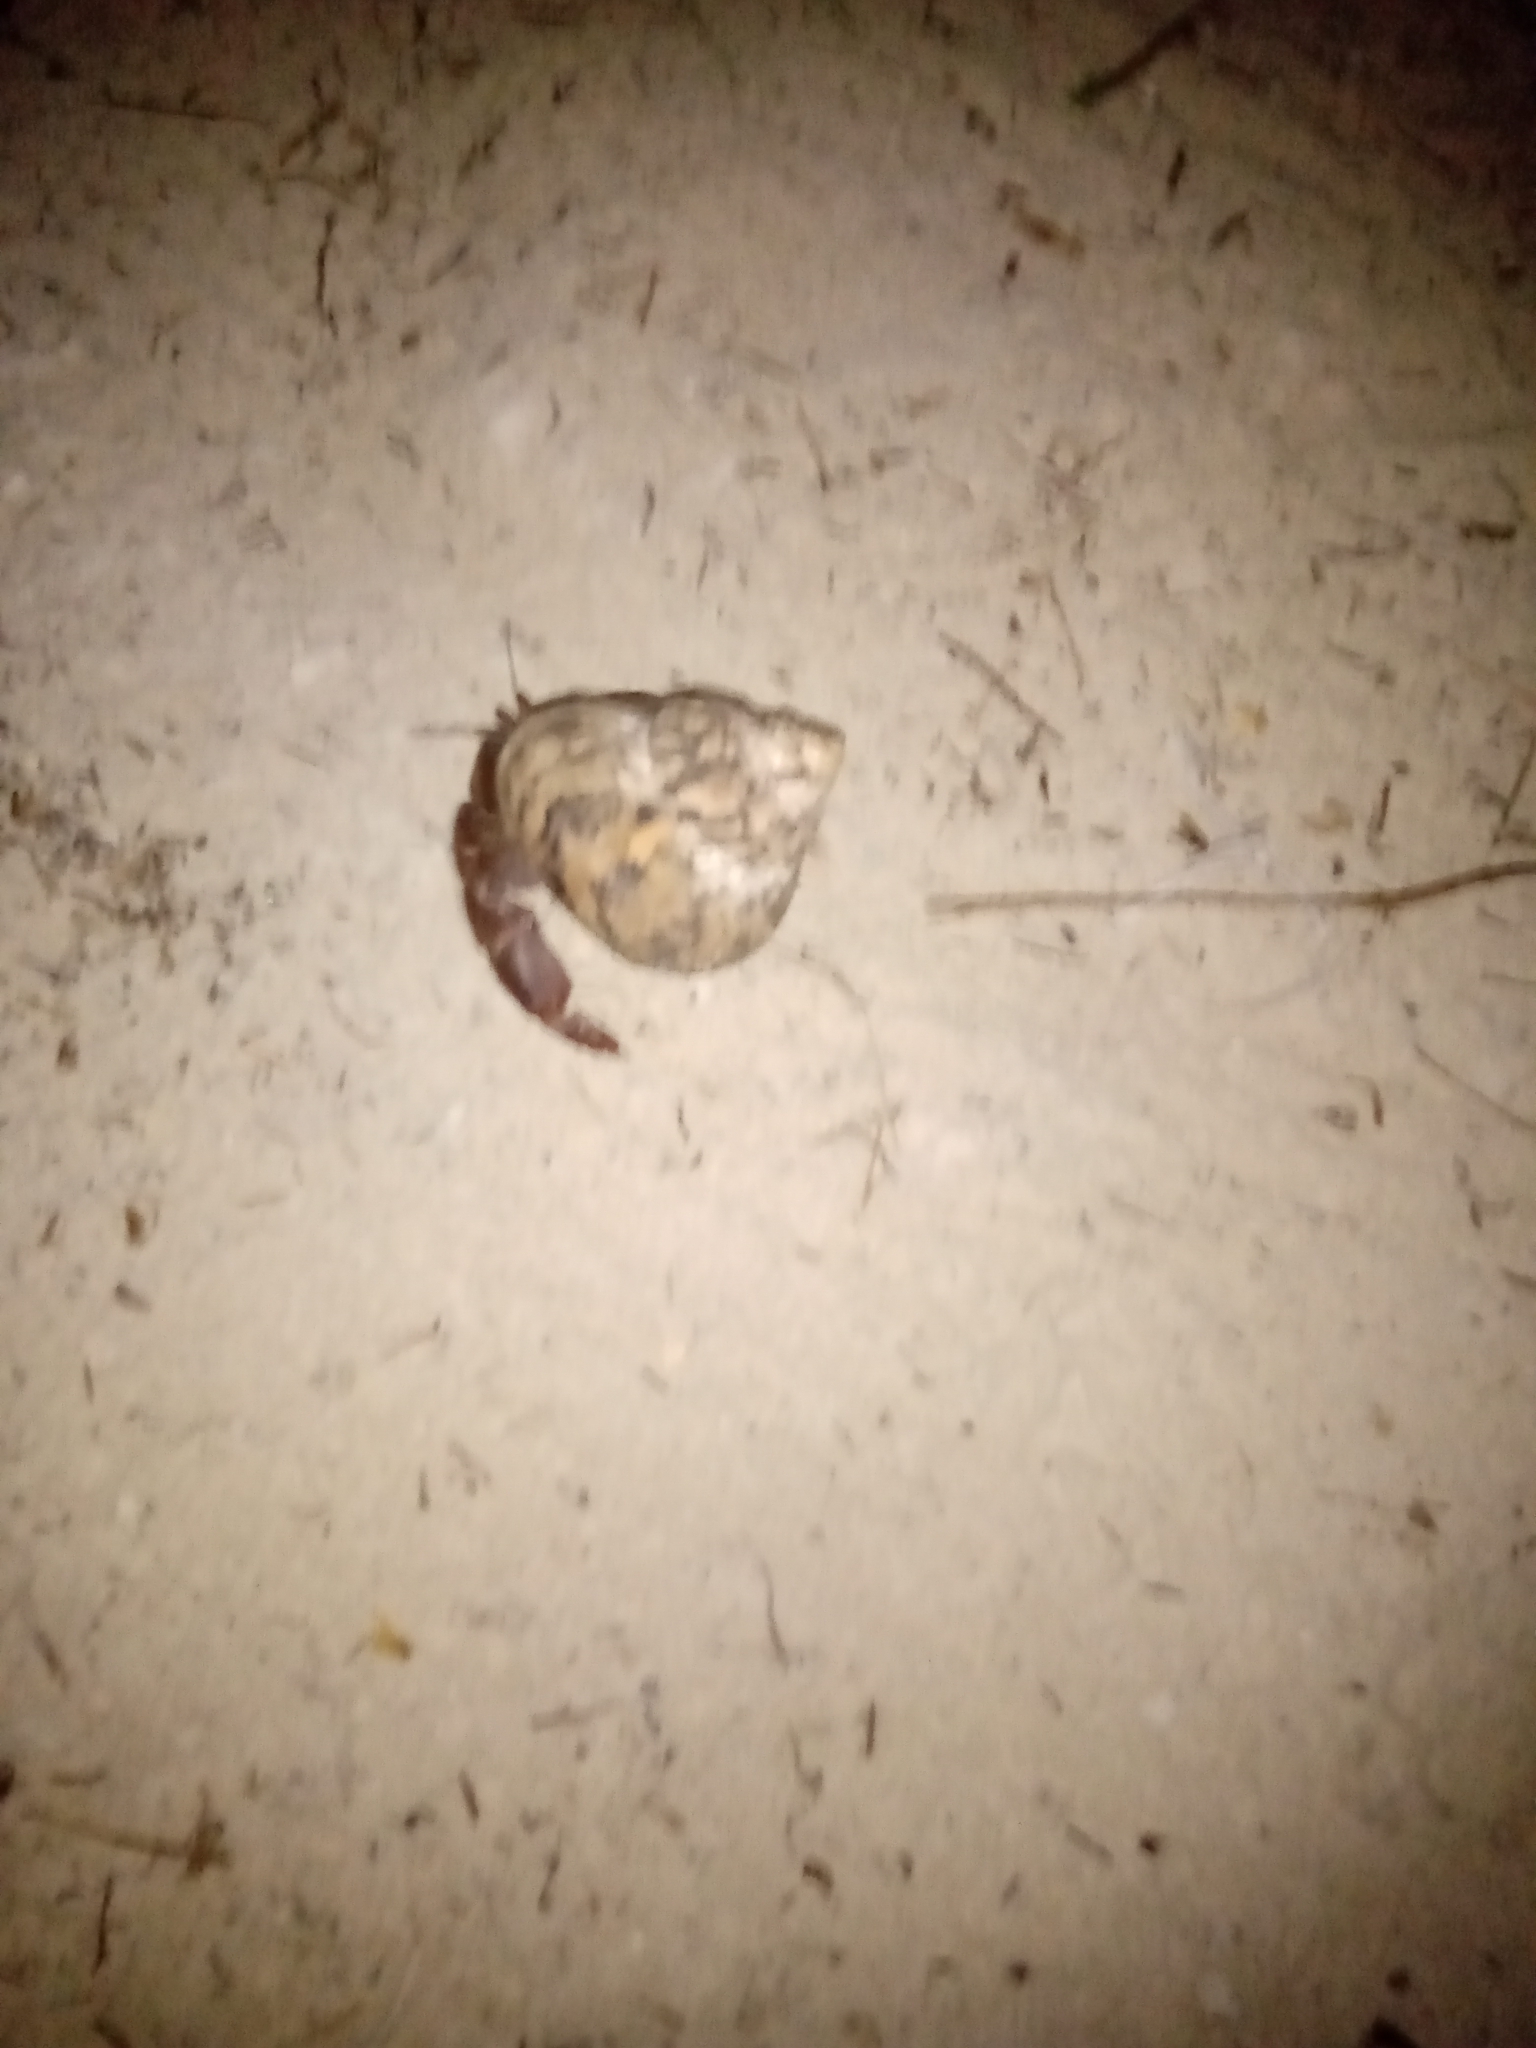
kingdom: Animalia
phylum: Arthropoda
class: Malacostraca
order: Decapoda
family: Coenobitidae
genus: Coenobita
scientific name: Coenobita clypeatus
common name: Caribbean hermit crab
